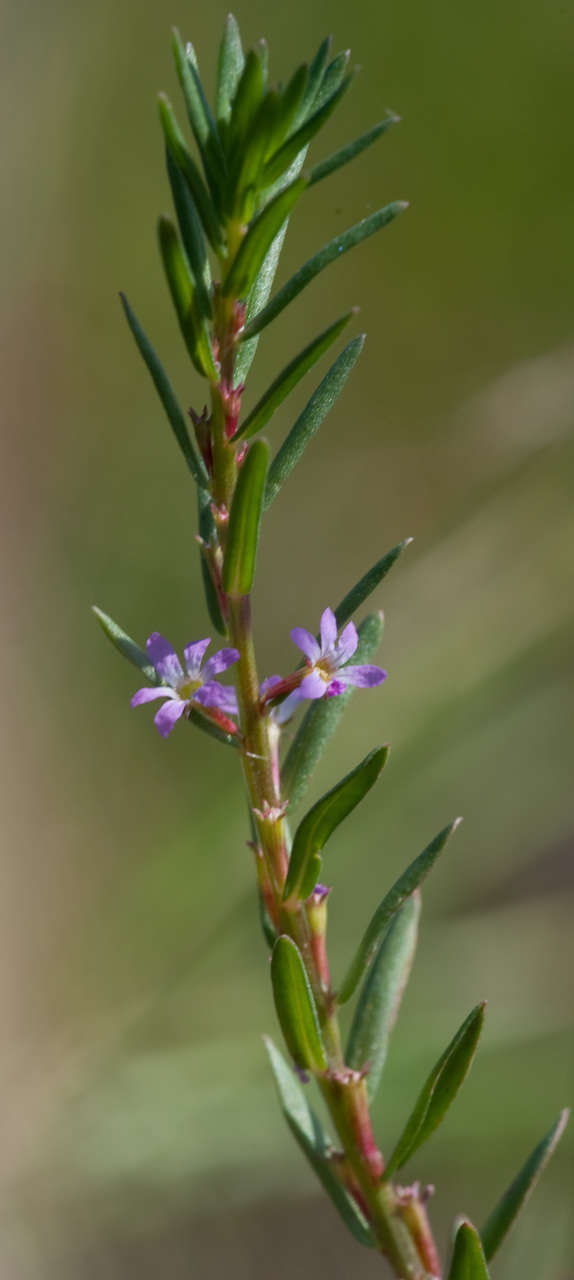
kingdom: Plantae
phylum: Tracheophyta
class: Magnoliopsida
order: Myrtales
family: Lythraceae
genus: Lythrum
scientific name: Lythrum hyssopifolia
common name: Grass-poly
